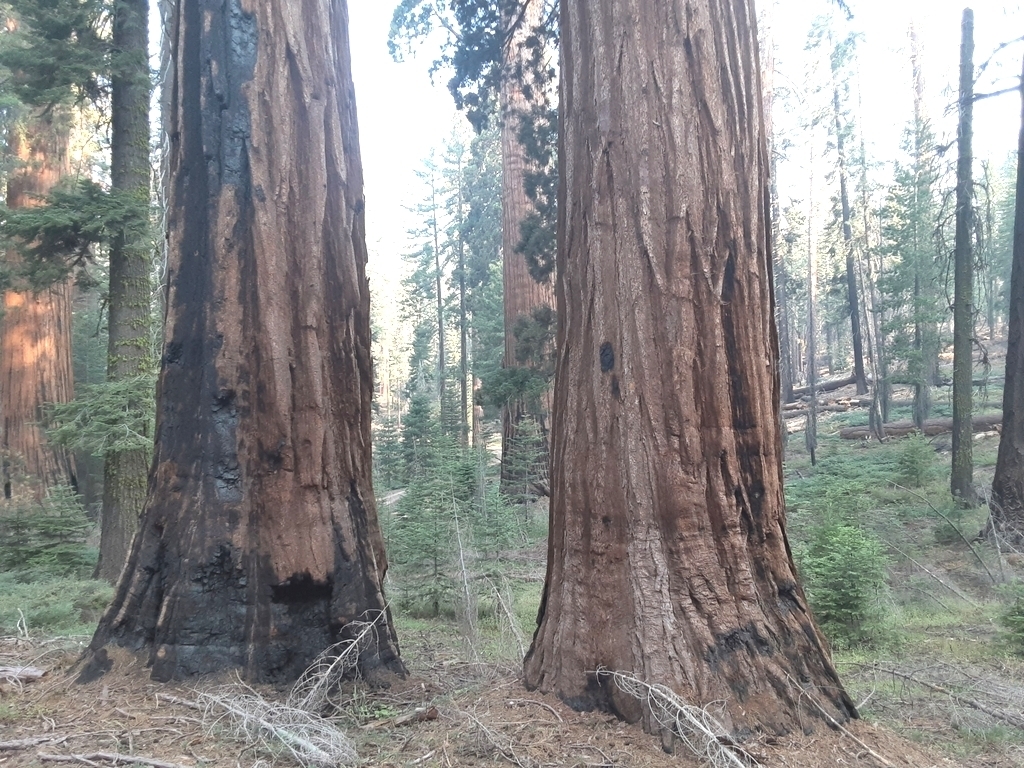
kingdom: Plantae
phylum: Tracheophyta
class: Pinopsida
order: Pinales
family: Cupressaceae
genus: Sequoiadendron
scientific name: Sequoiadendron giganteum
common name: Wellingtonia
